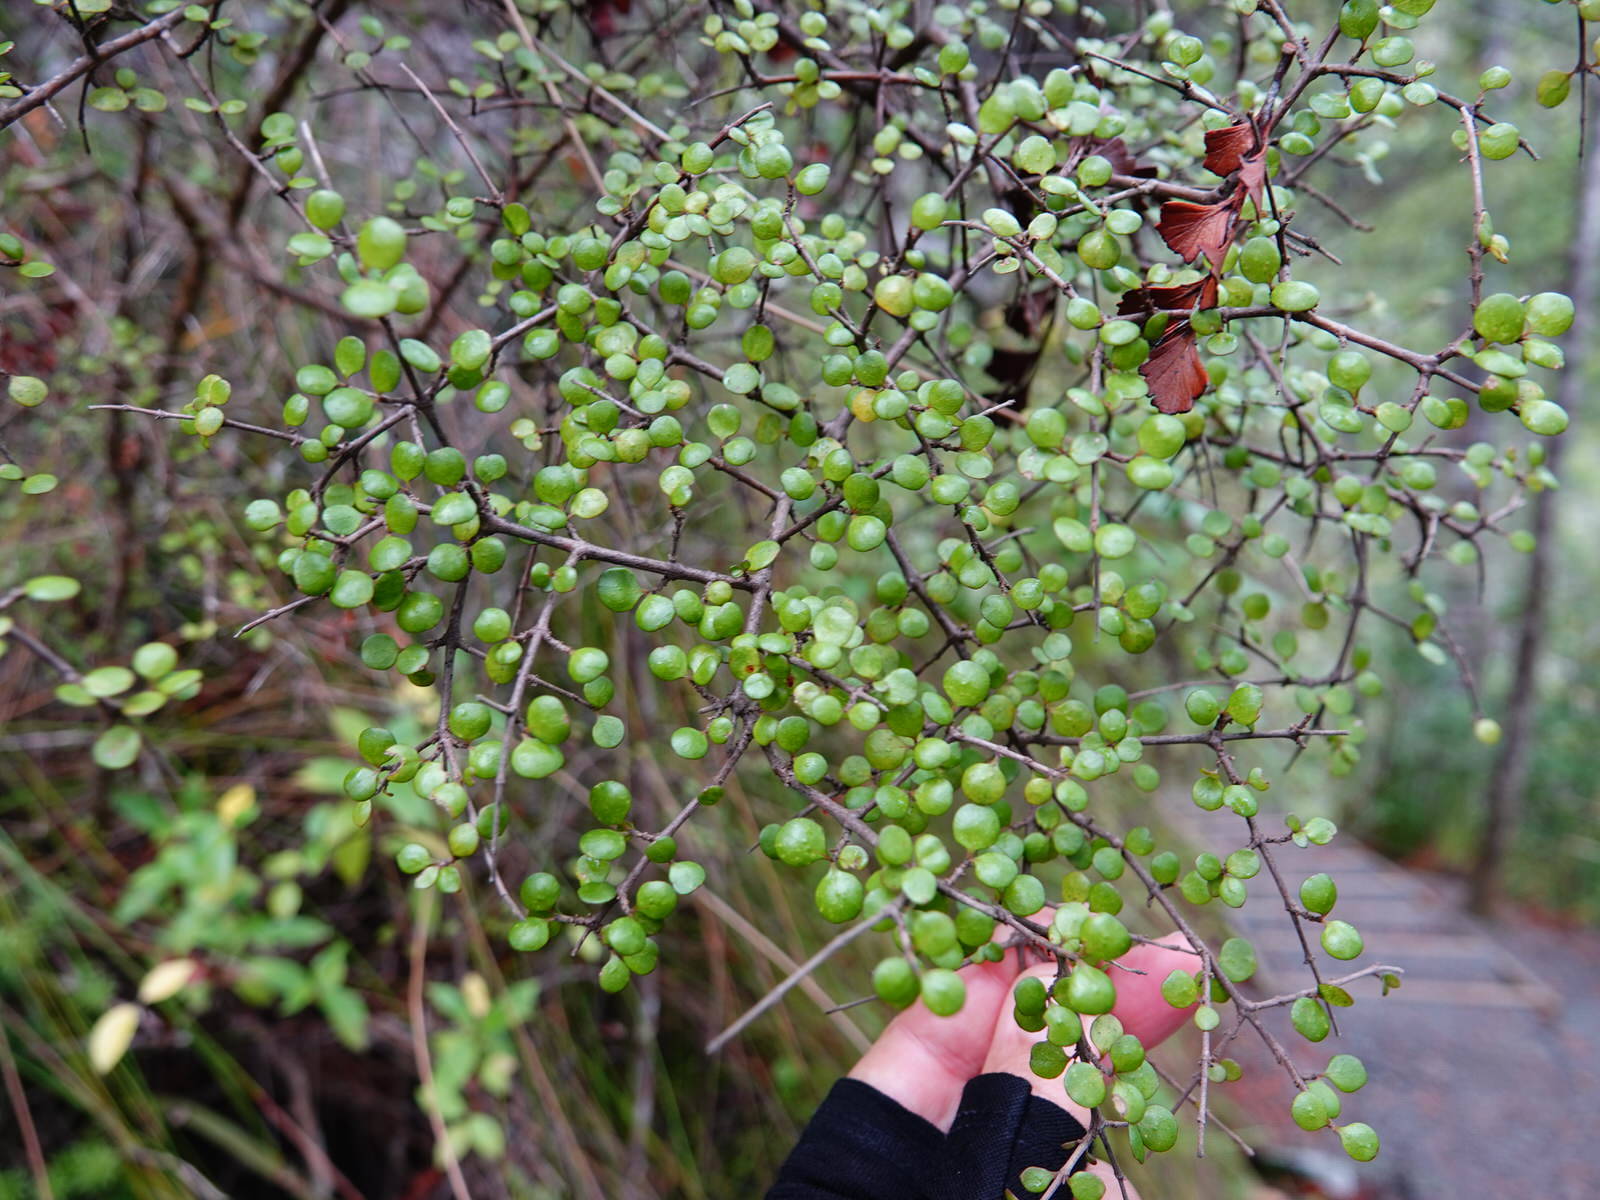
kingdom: Plantae
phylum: Tracheophyta
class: Magnoliopsida
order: Gentianales
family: Rubiaceae
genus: Coprosma
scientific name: Coprosma crassifolia
